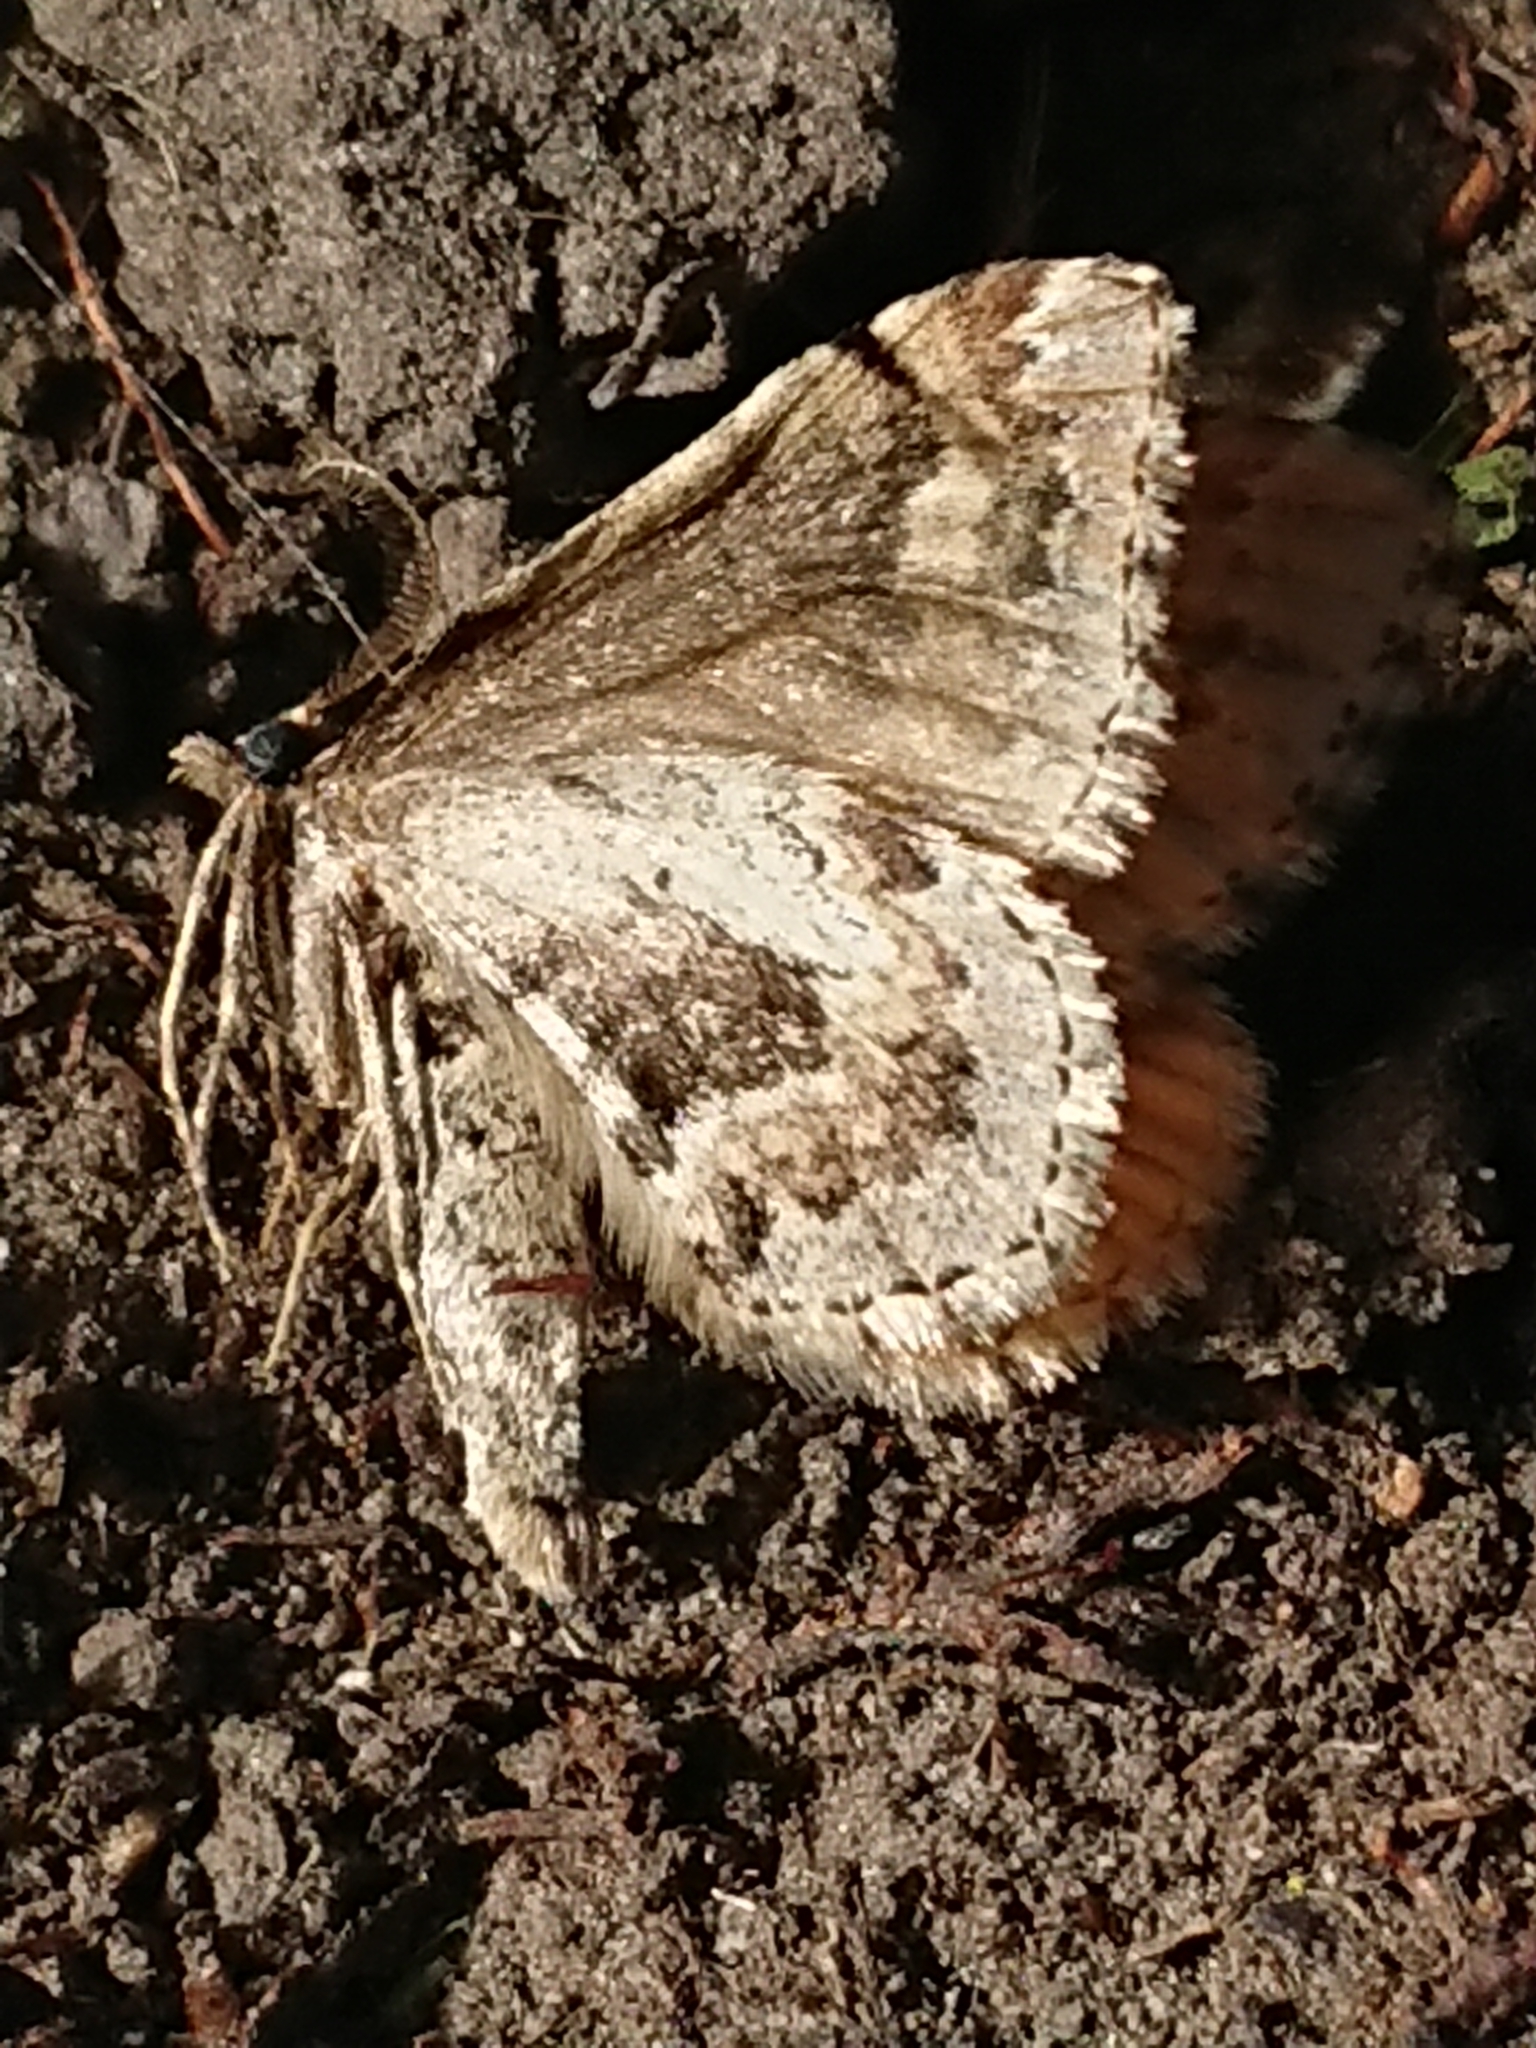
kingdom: Animalia
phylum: Arthropoda
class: Insecta
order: Lepidoptera
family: Geometridae
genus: Asaphodes
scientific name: Asaphodes aegrota
